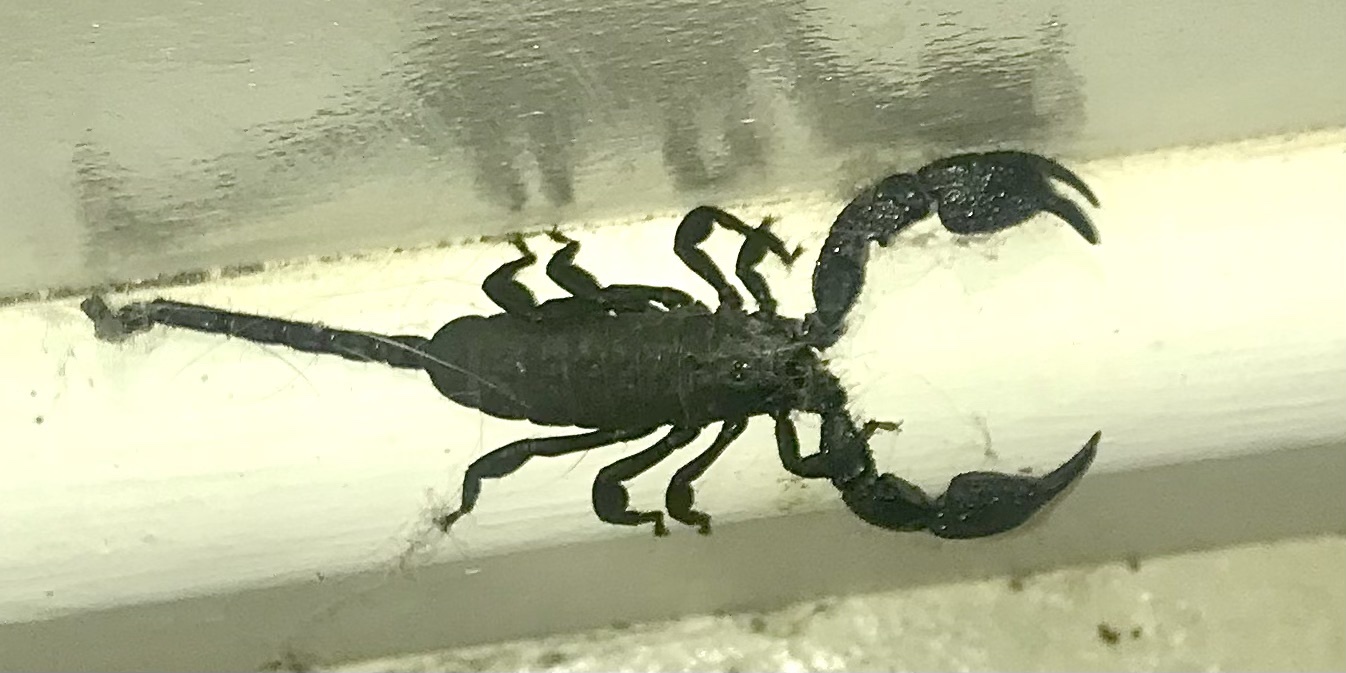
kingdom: Animalia
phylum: Arthropoda
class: Arachnida
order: Scorpiones
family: Hormuridae
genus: Opisthacanthus
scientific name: Opisthacanthus capensis
